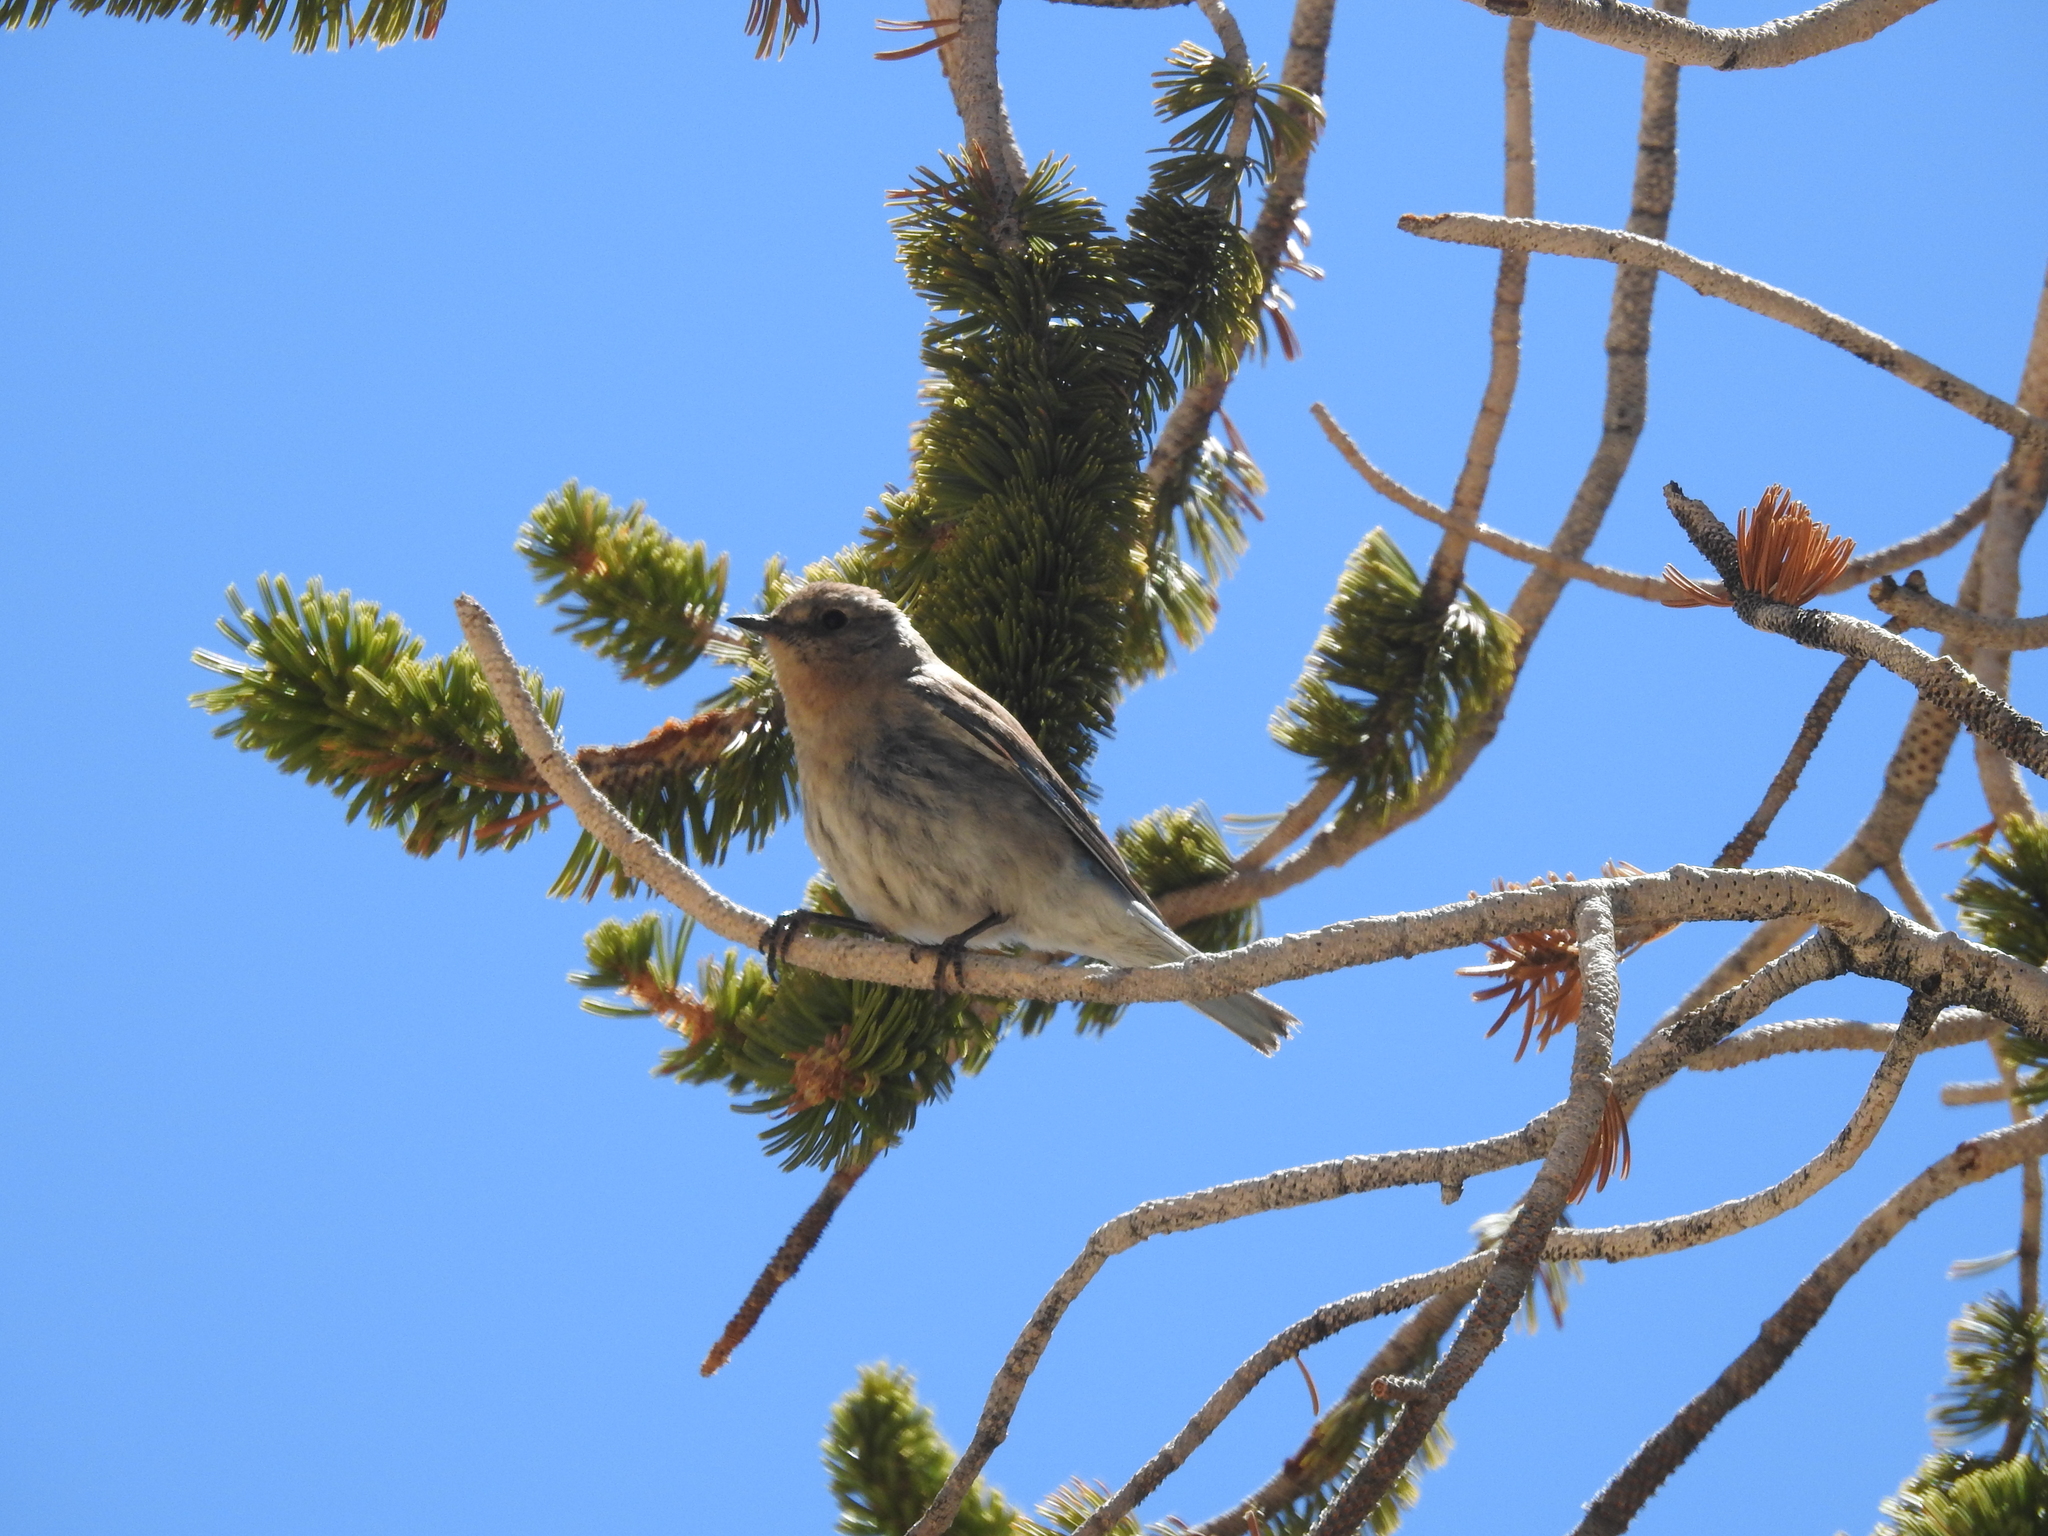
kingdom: Animalia
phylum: Chordata
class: Aves
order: Passeriformes
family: Parulidae
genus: Setophaga
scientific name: Setophaga coronata
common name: Myrtle warbler
